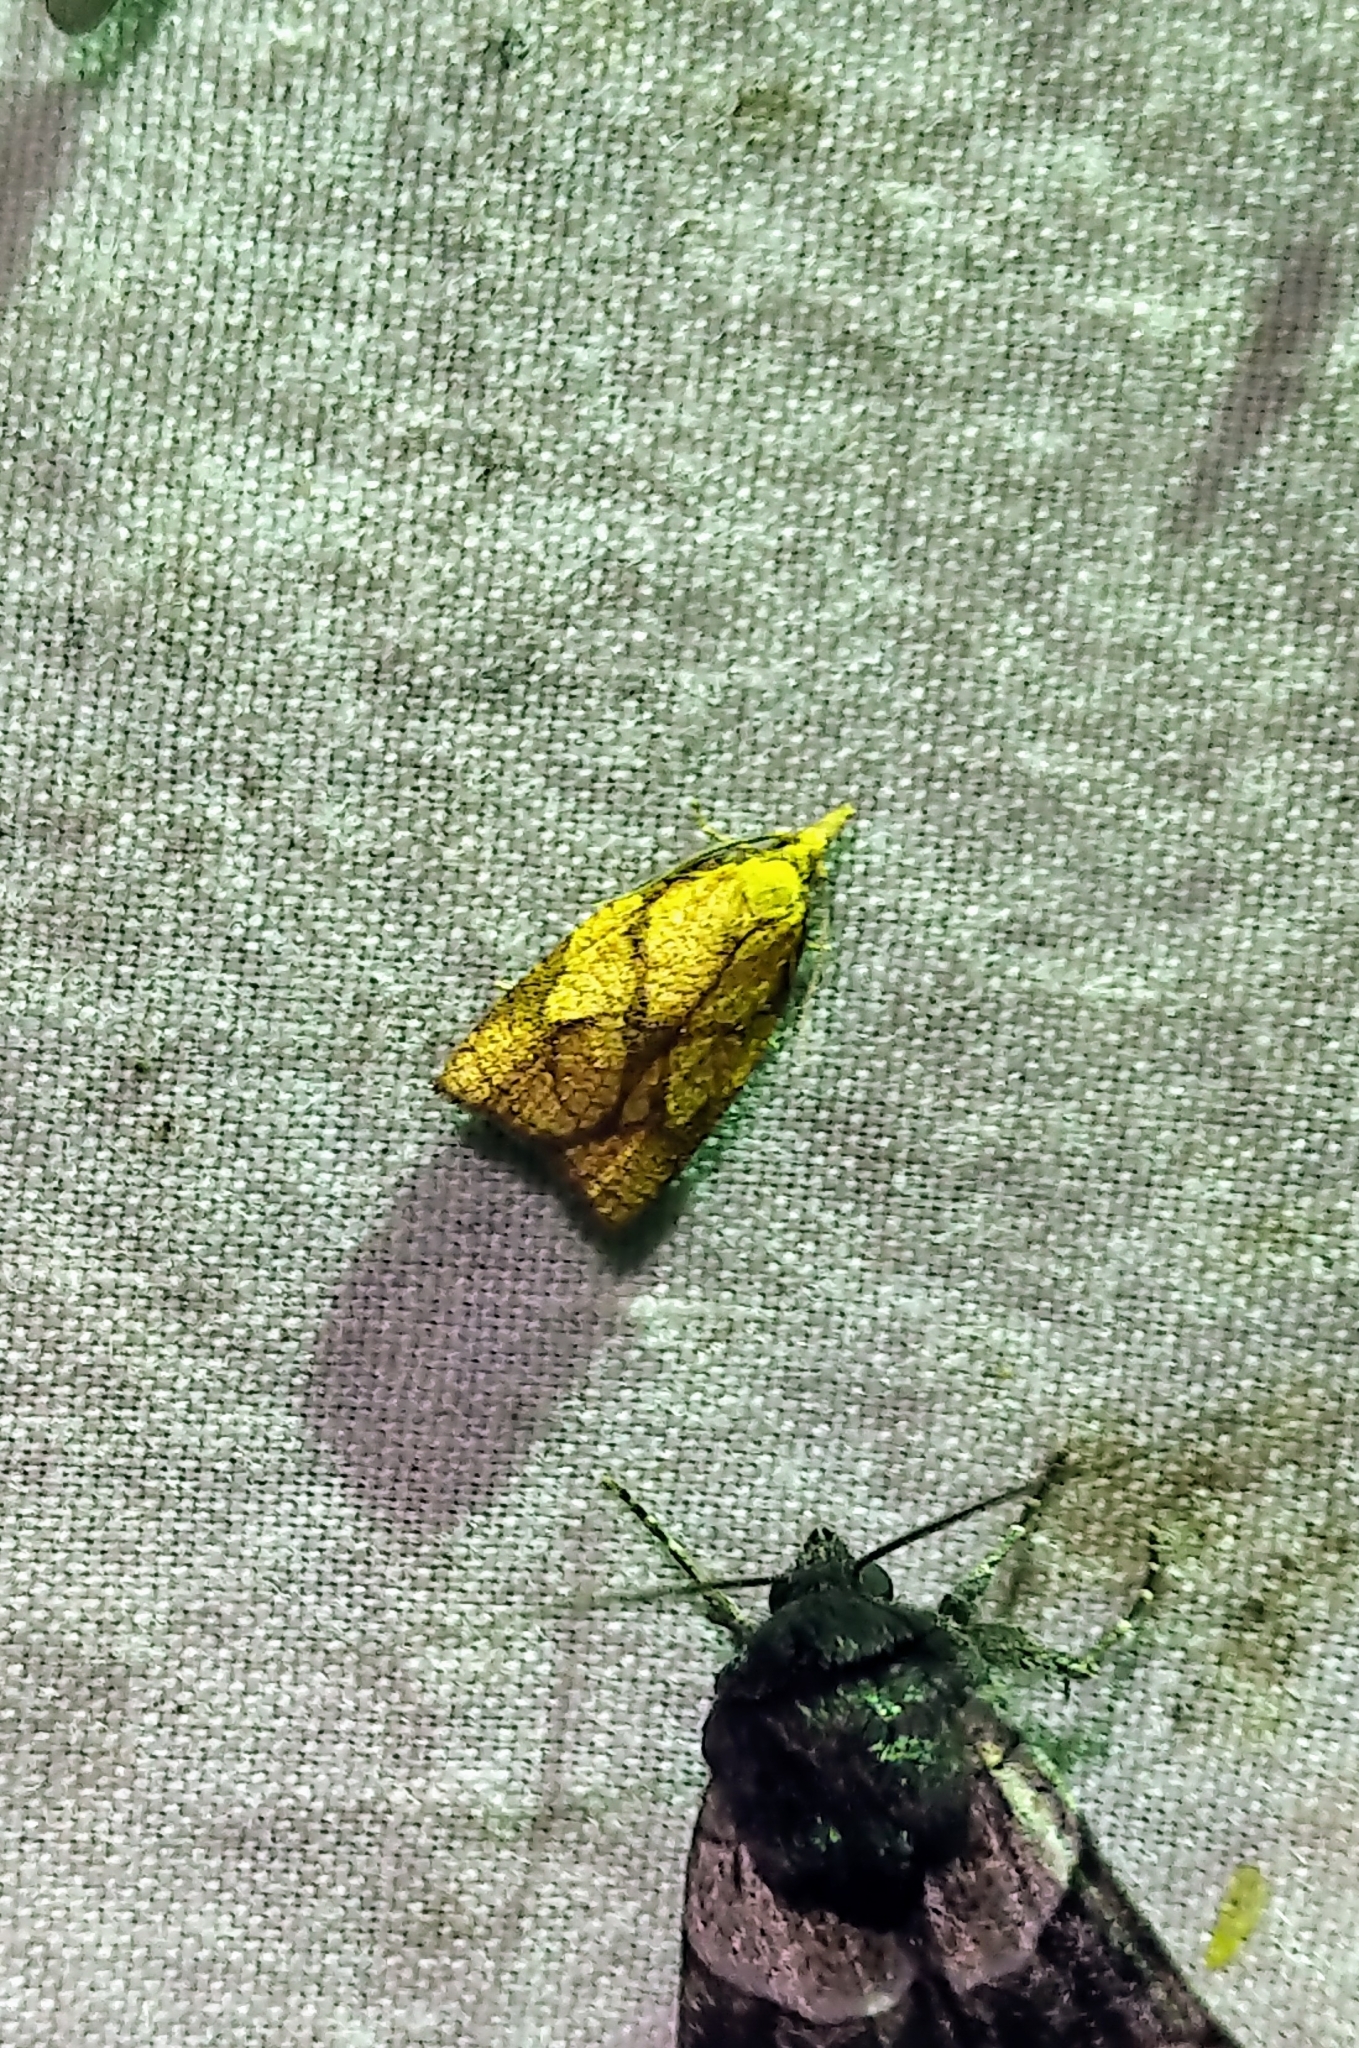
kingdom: Animalia
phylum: Arthropoda
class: Insecta
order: Lepidoptera
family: Tortricidae
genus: Cenopis
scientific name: Cenopis reticulatana
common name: Reticulated fruitworm moth
